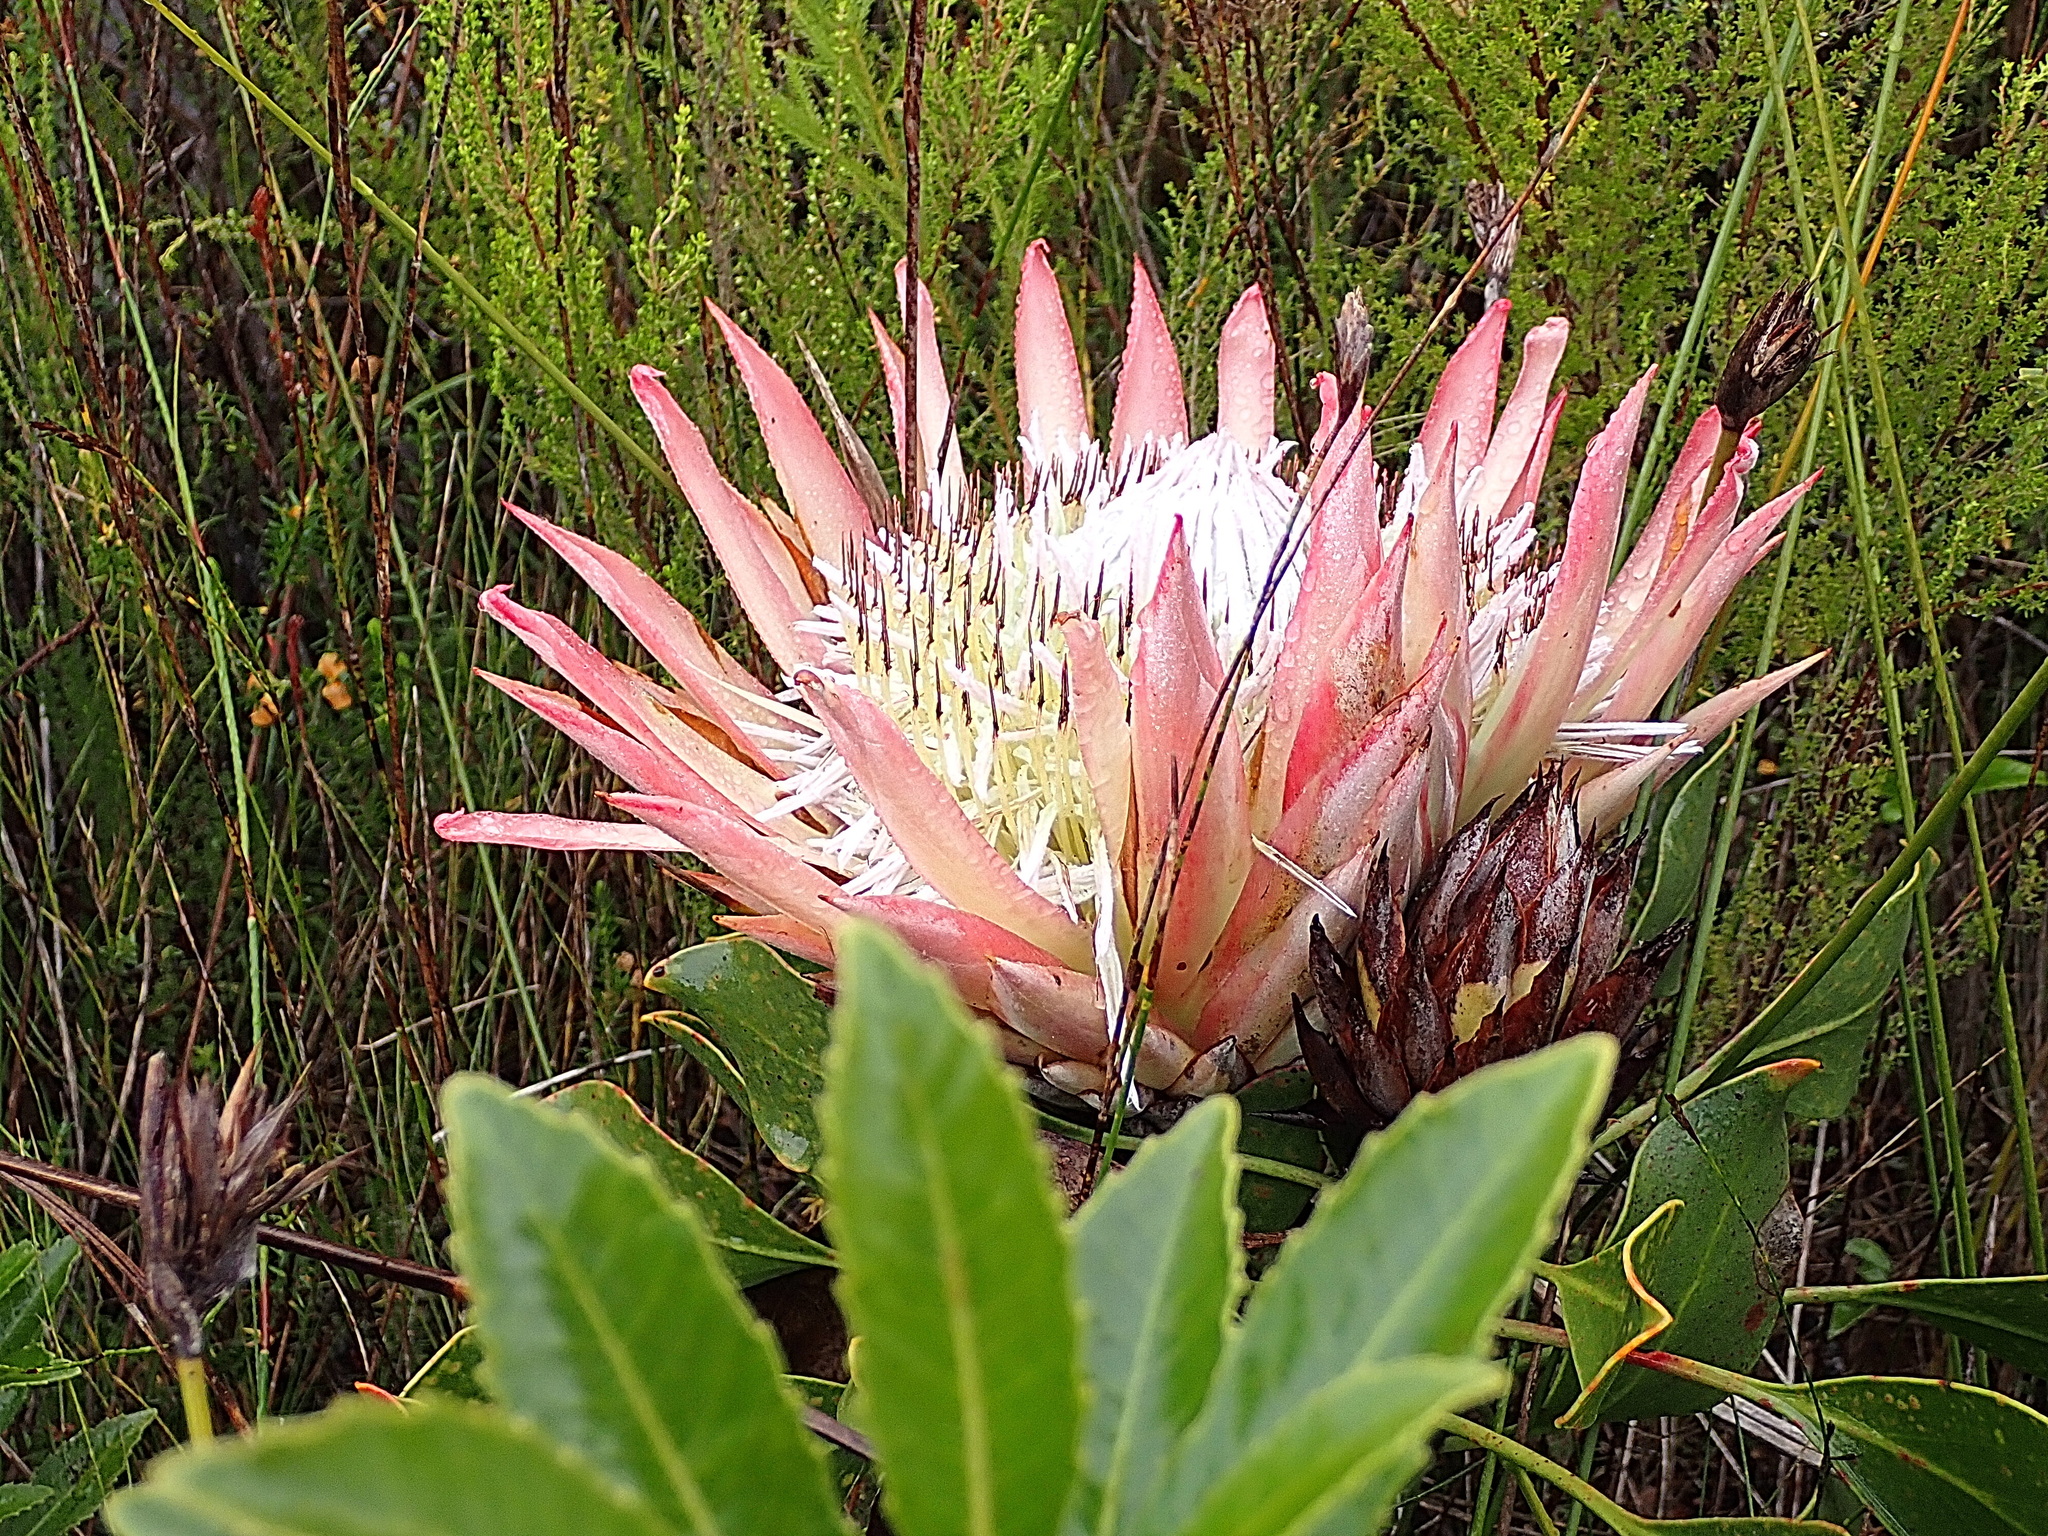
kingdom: Plantae
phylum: Tracheophyta
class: Magnoliopsida
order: Proteales
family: Proteaceae
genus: Protea
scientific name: Protea cynaroides
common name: King protea
